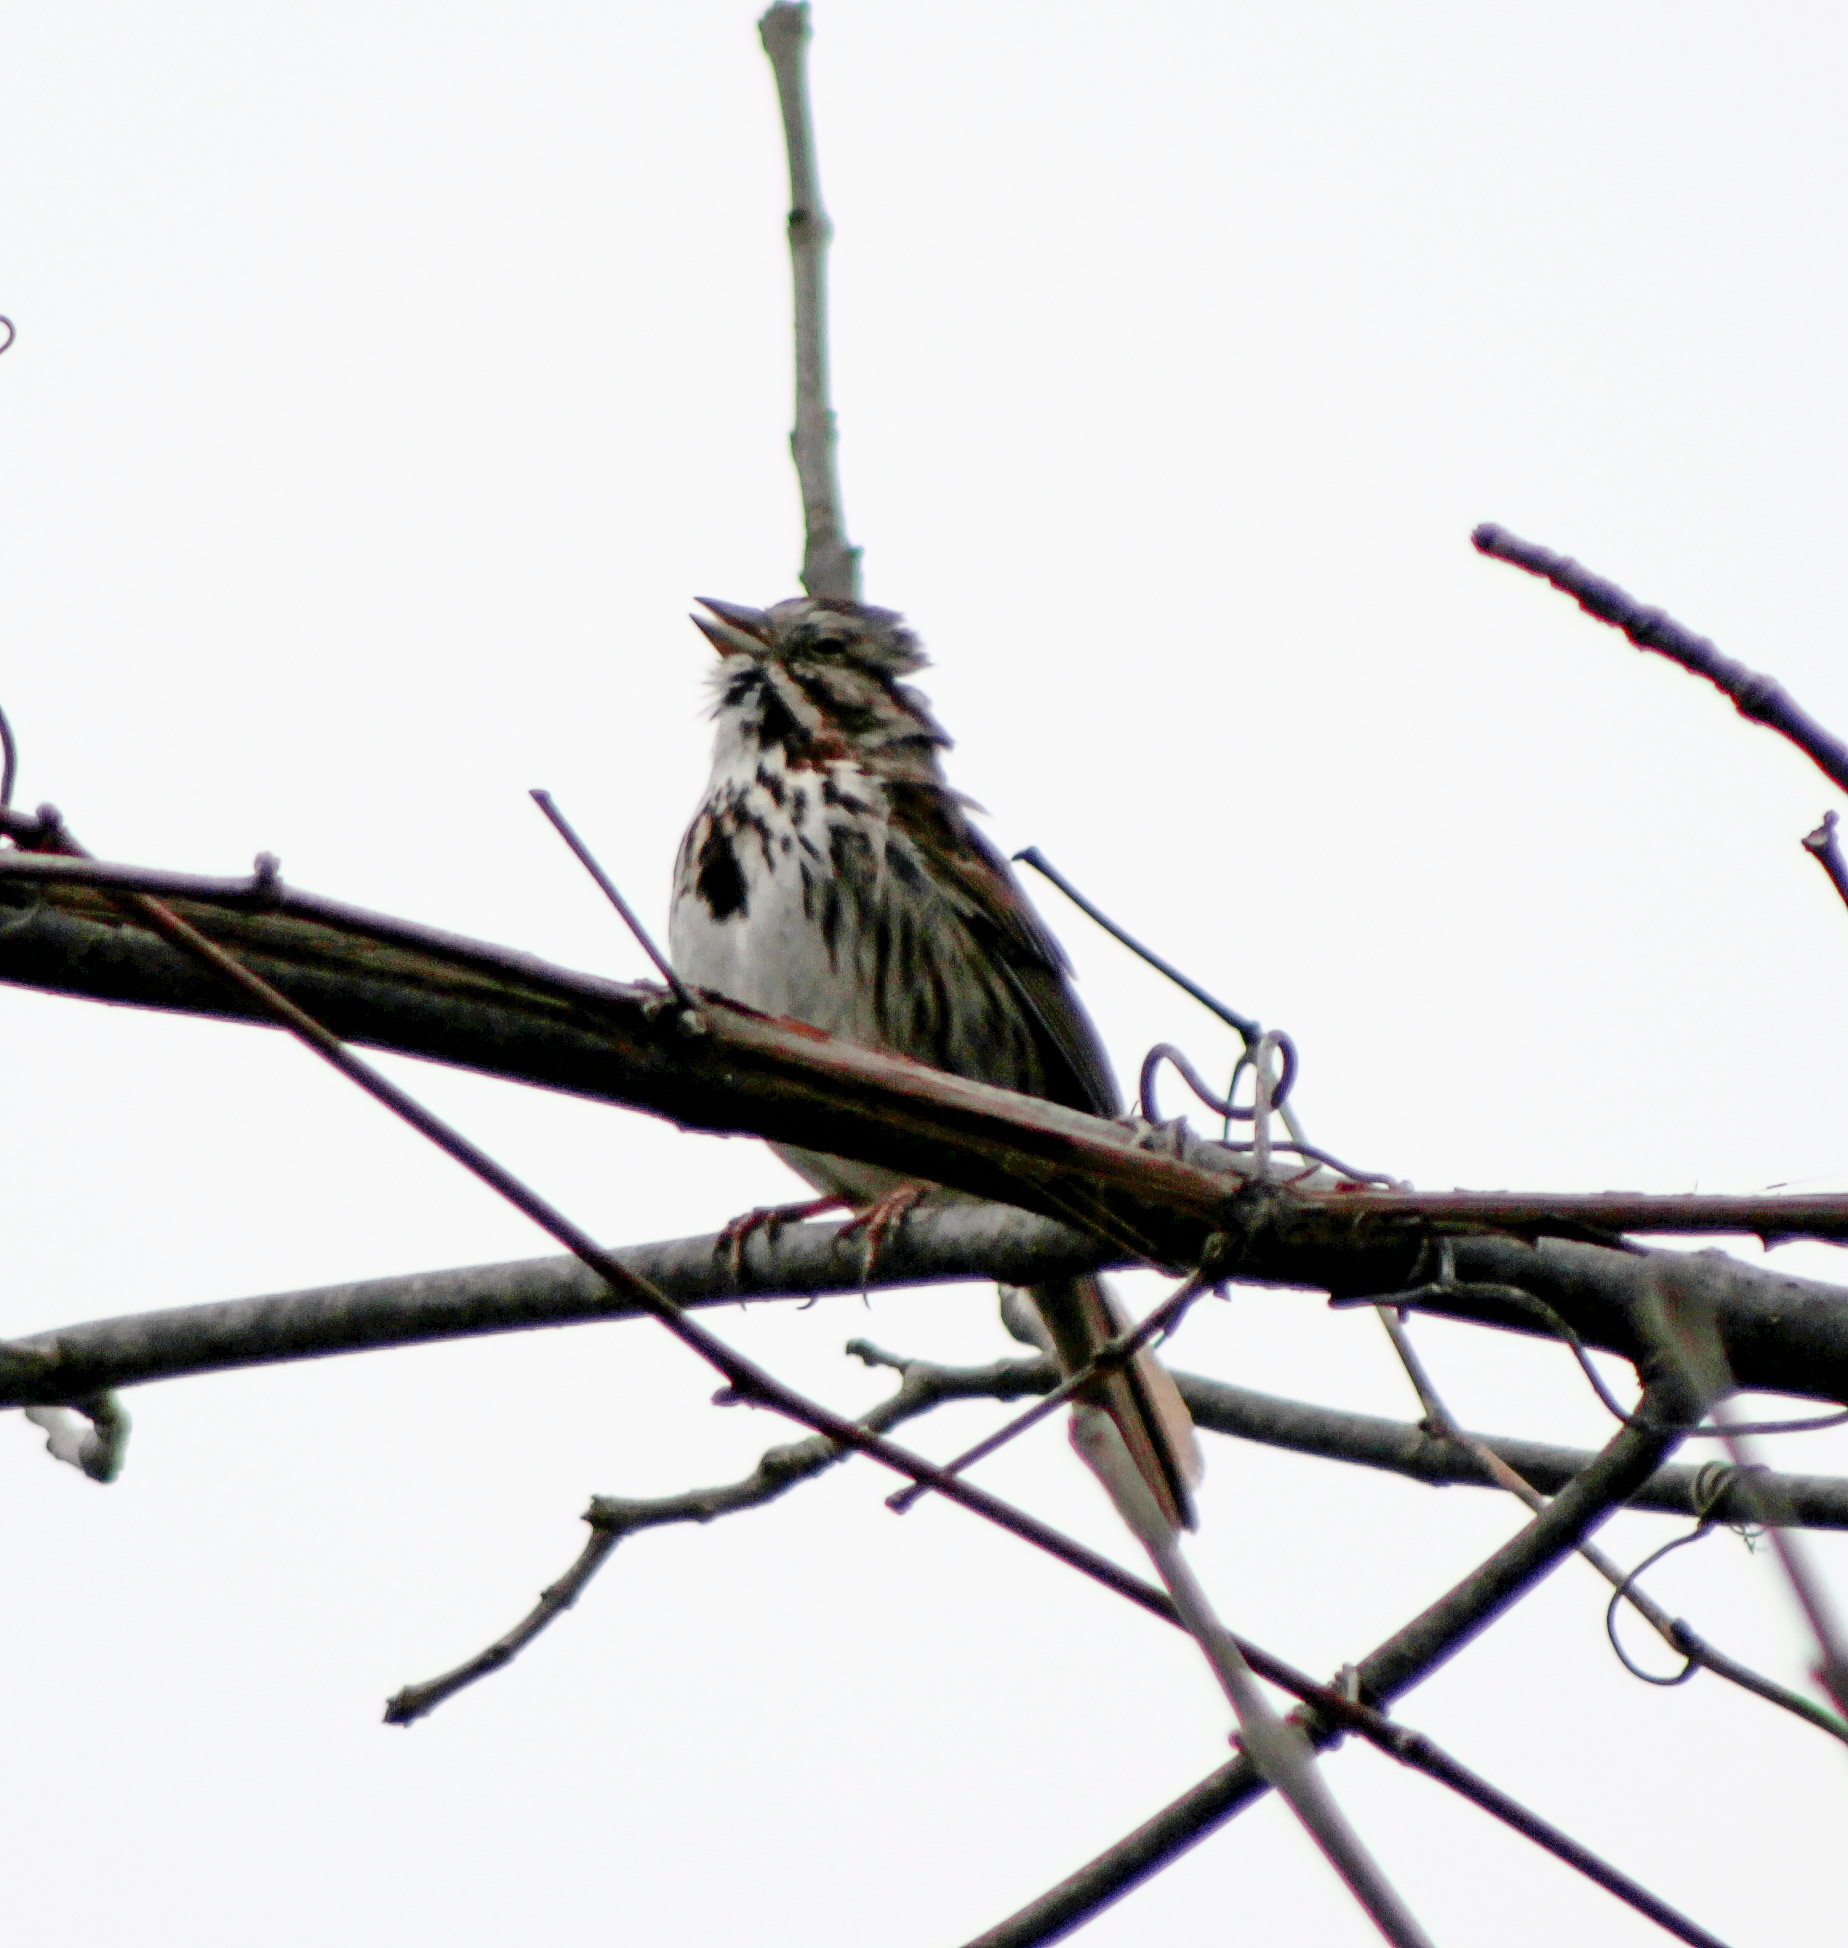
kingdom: Animalia
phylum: Chordata
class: Aves
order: Passeriformes
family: Passerellidae
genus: Melospiza
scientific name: Melospiza melodia
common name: Song sparrow
